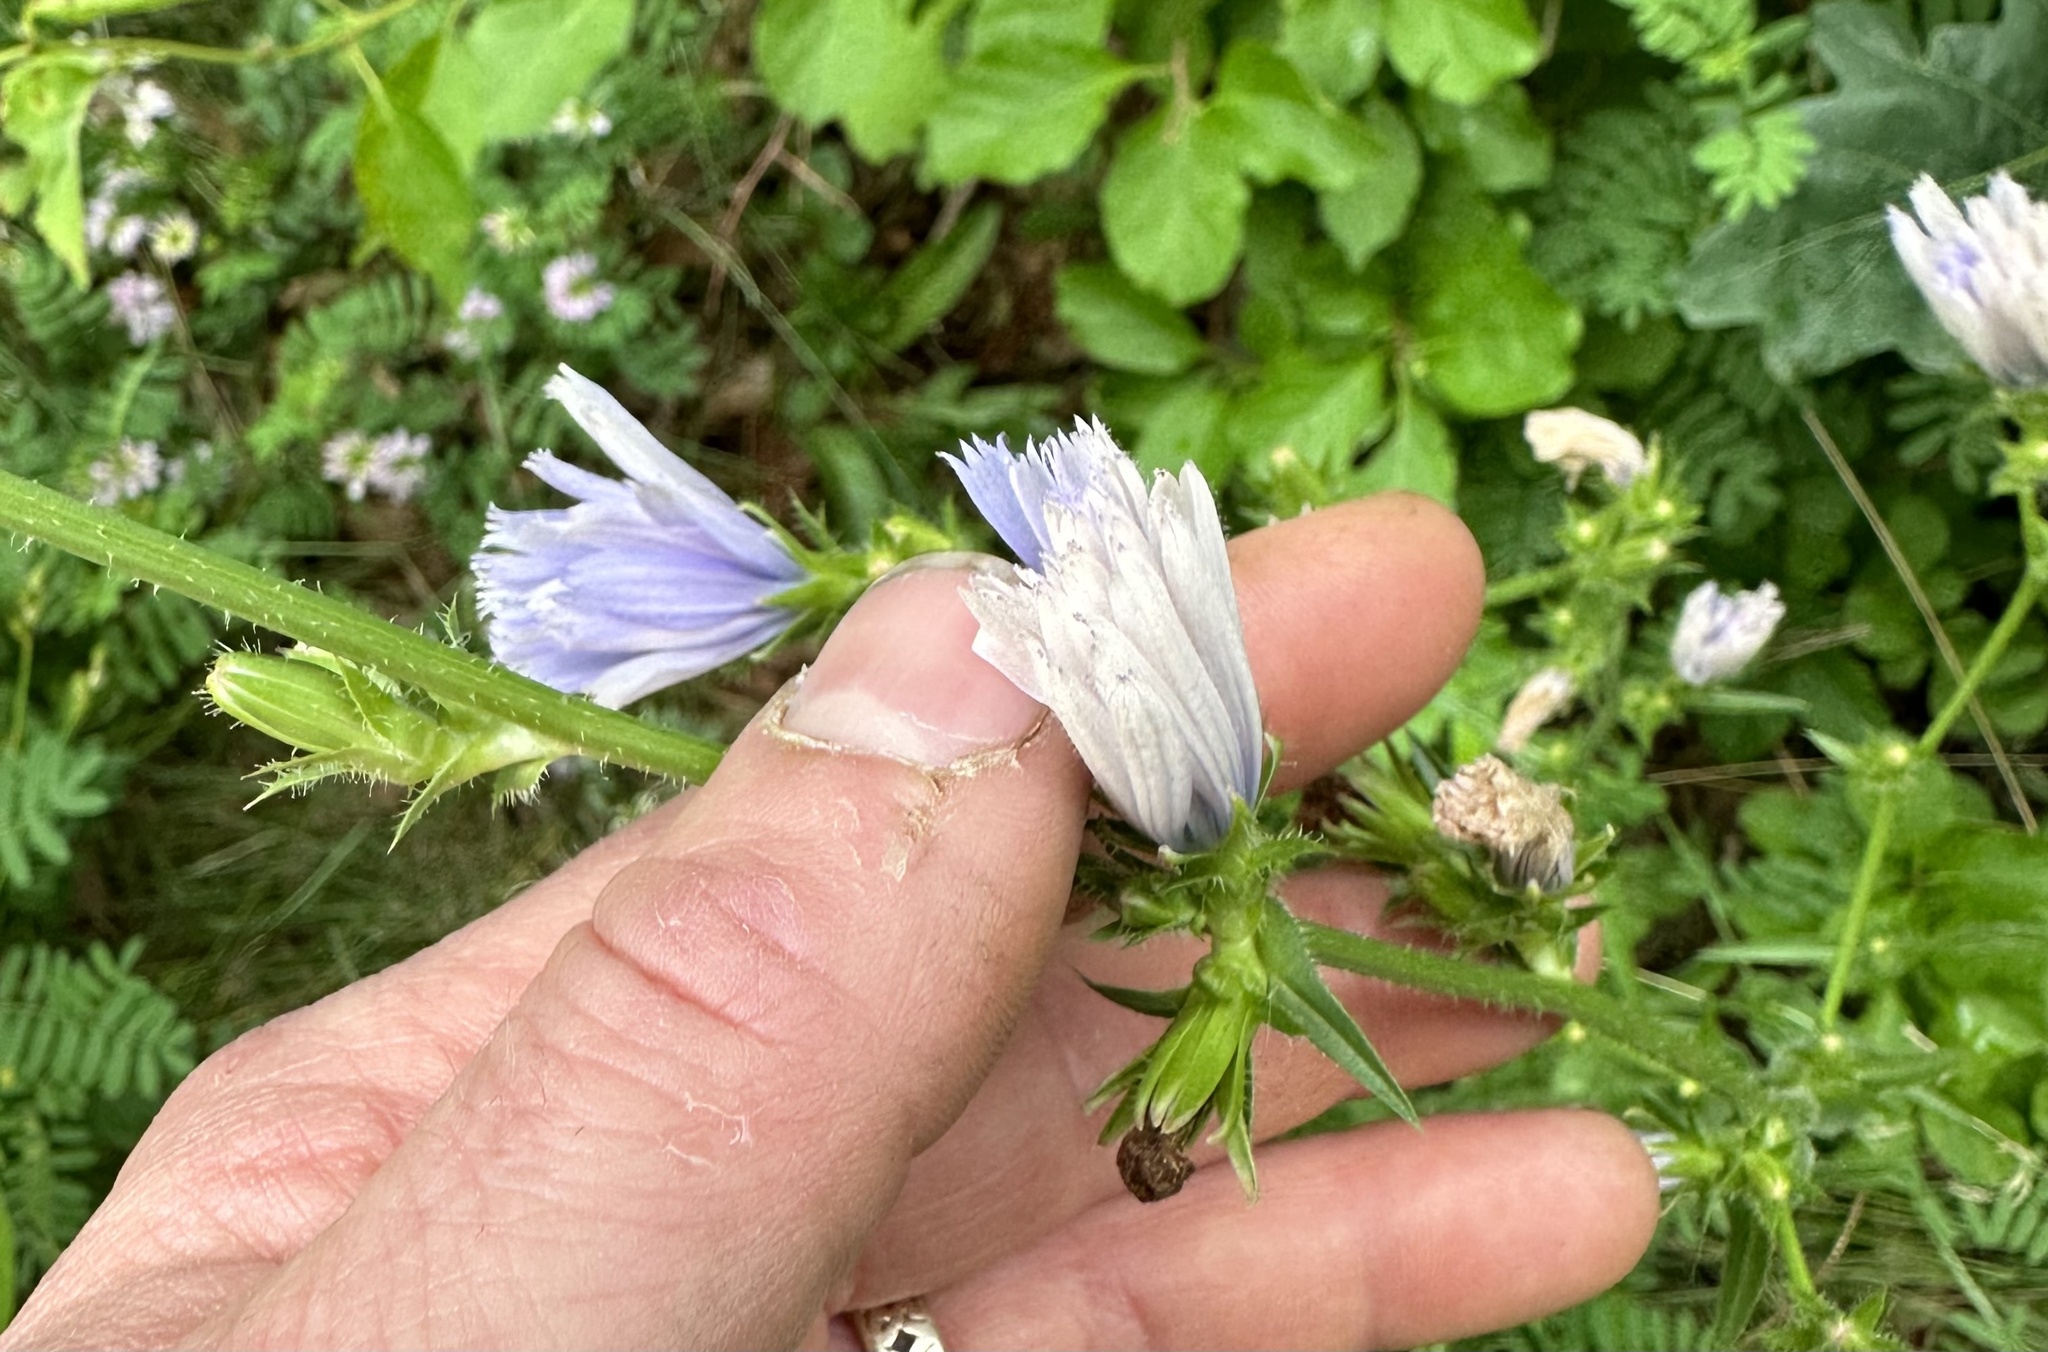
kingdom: Plantae
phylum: Tracheophyta
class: Magnoliopsida
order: Asterales
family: Asteraceae
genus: Cichorium
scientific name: Cichorium intybus
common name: Chicory
